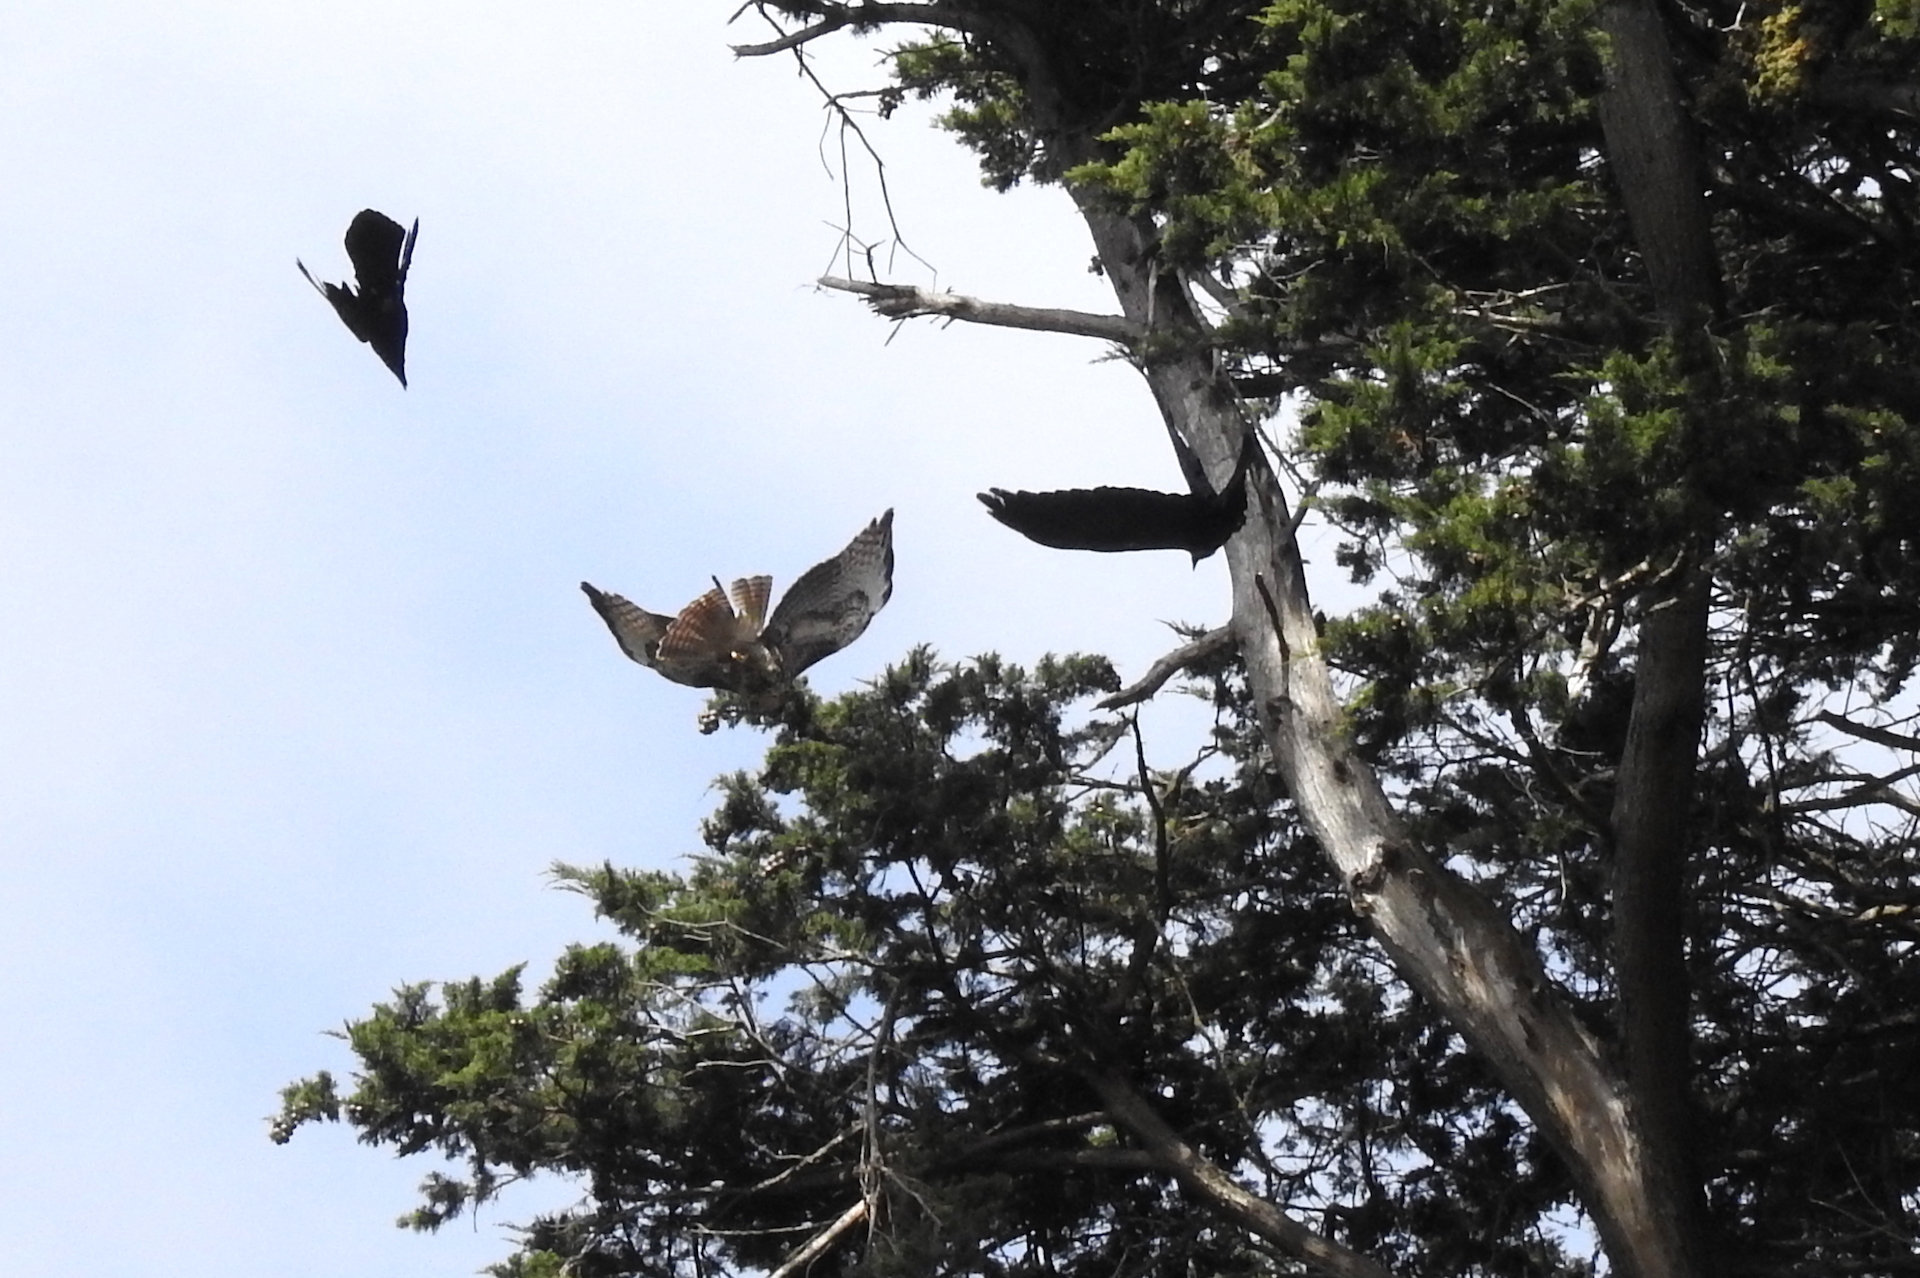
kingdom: Animalia
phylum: Chordata
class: Aves
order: Accipitriformes
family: Accipitridae
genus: Buteo
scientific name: Buteo jamaicensis
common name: Red-tailed hawk
